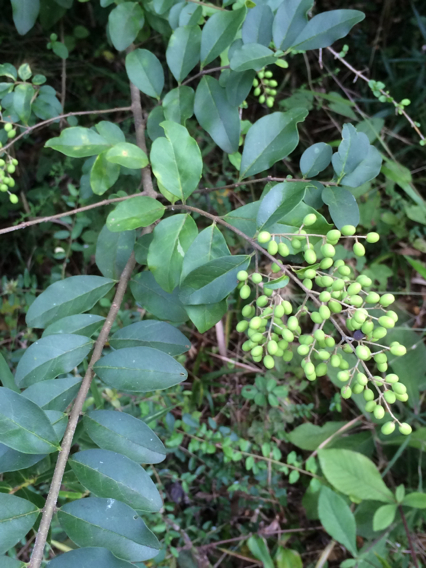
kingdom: Plantae
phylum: Tracheophyta
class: Magnoliopsida
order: Lamiales
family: Oleaceae
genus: Ligustrum
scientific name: Ligustrum sinense
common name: Chinese privet
